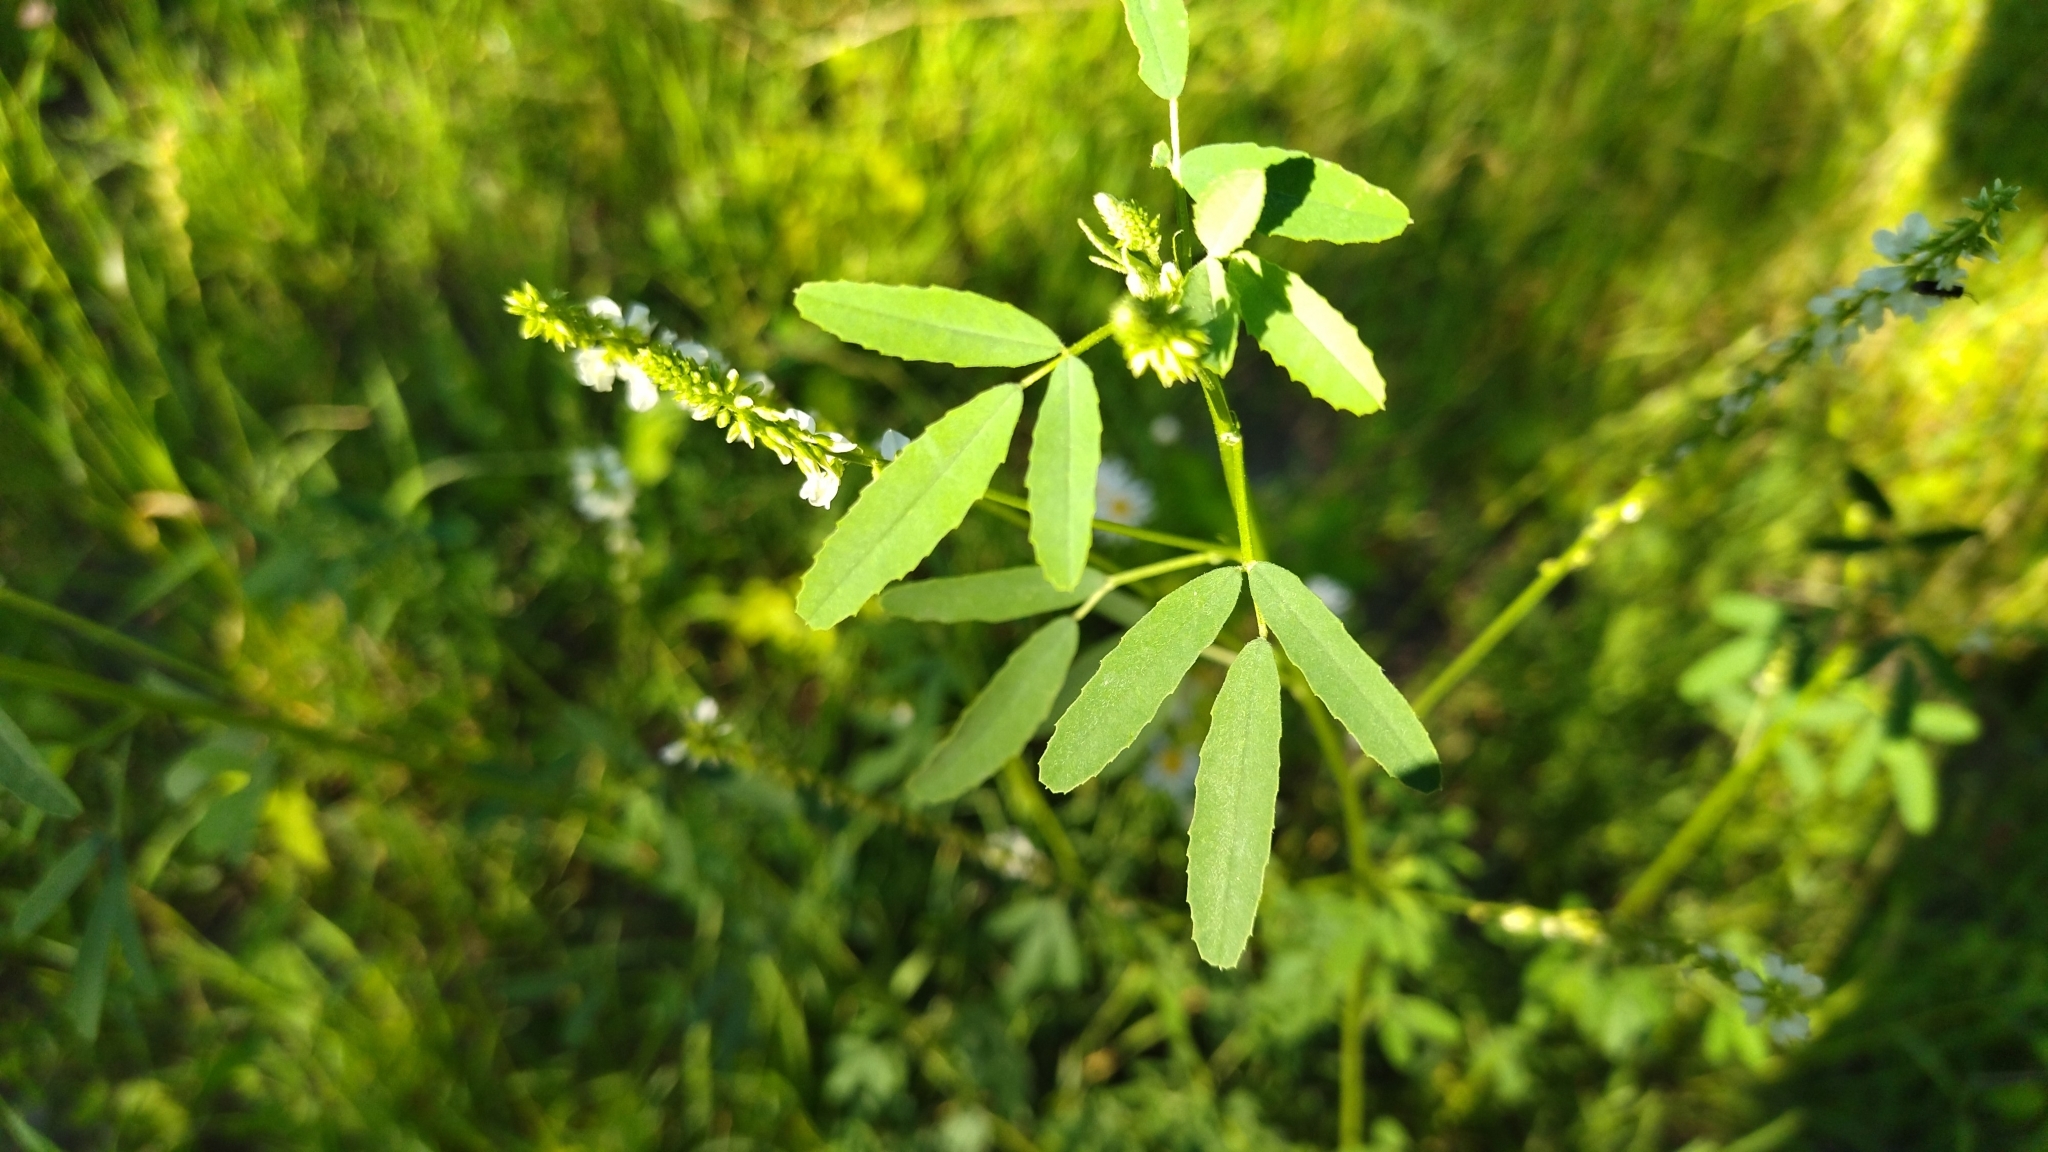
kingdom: Plantae
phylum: Tracheophyta
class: Magnoliopsida
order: Fabales
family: Fabaceae
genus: Melilotus
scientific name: Melilotus albus
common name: White melilot
